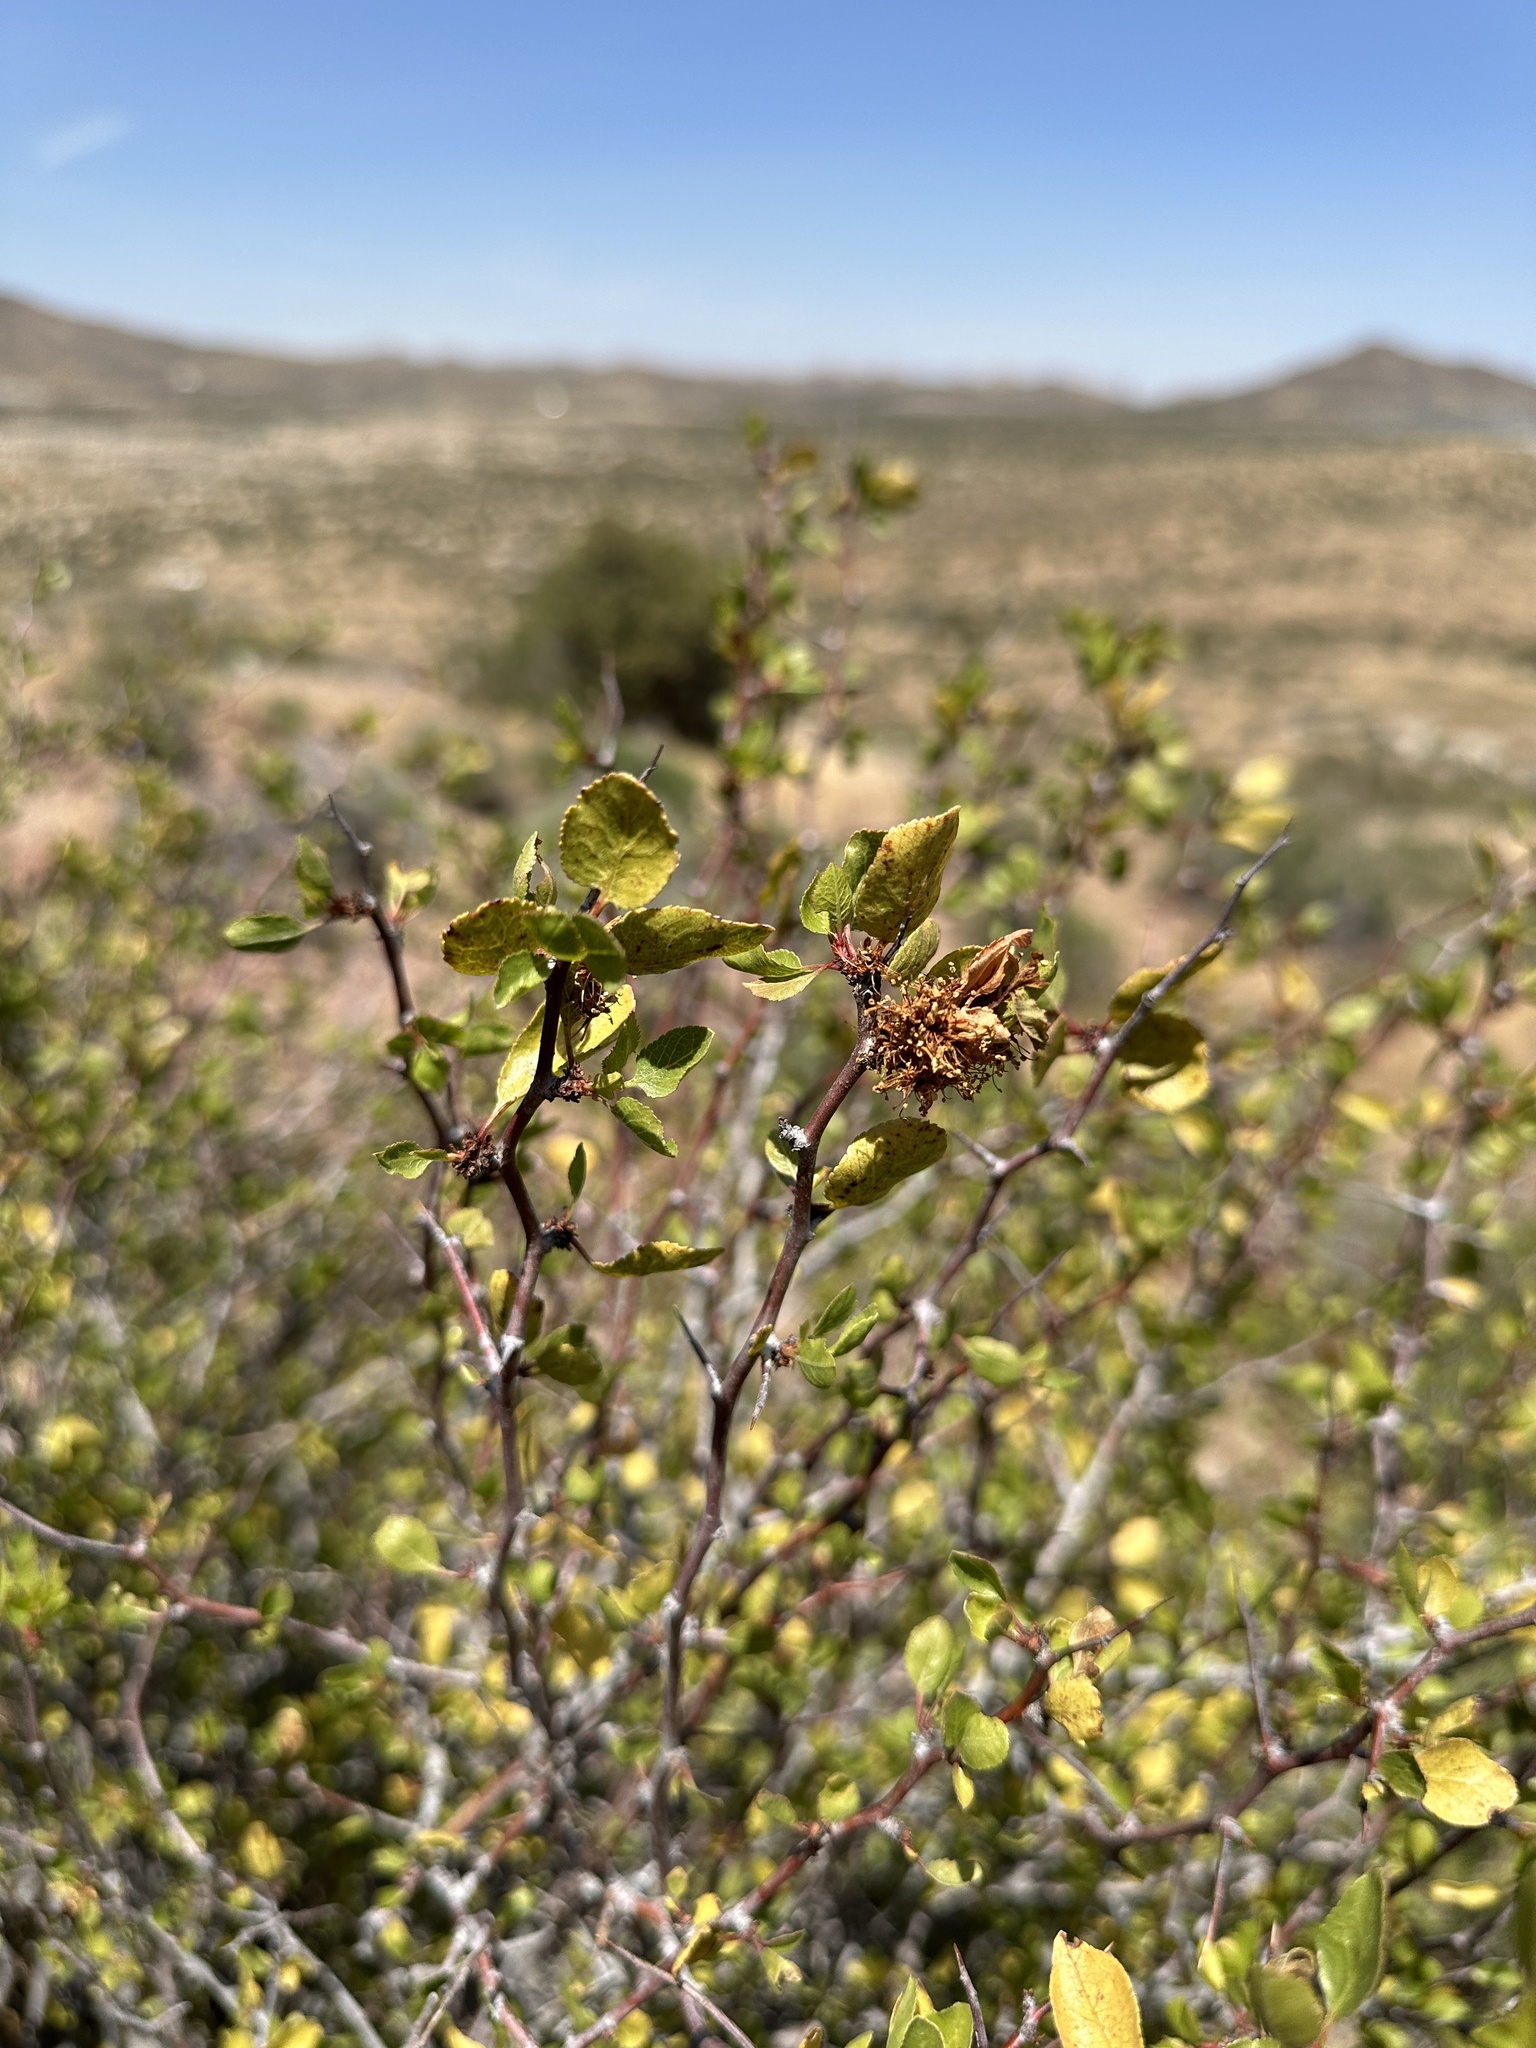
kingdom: Plantae
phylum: Tracheophyta
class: Magnoliopsida
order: Rosales
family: Rosaceae
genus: Prunus
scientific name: Prunus fremontii
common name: Desert apricot
